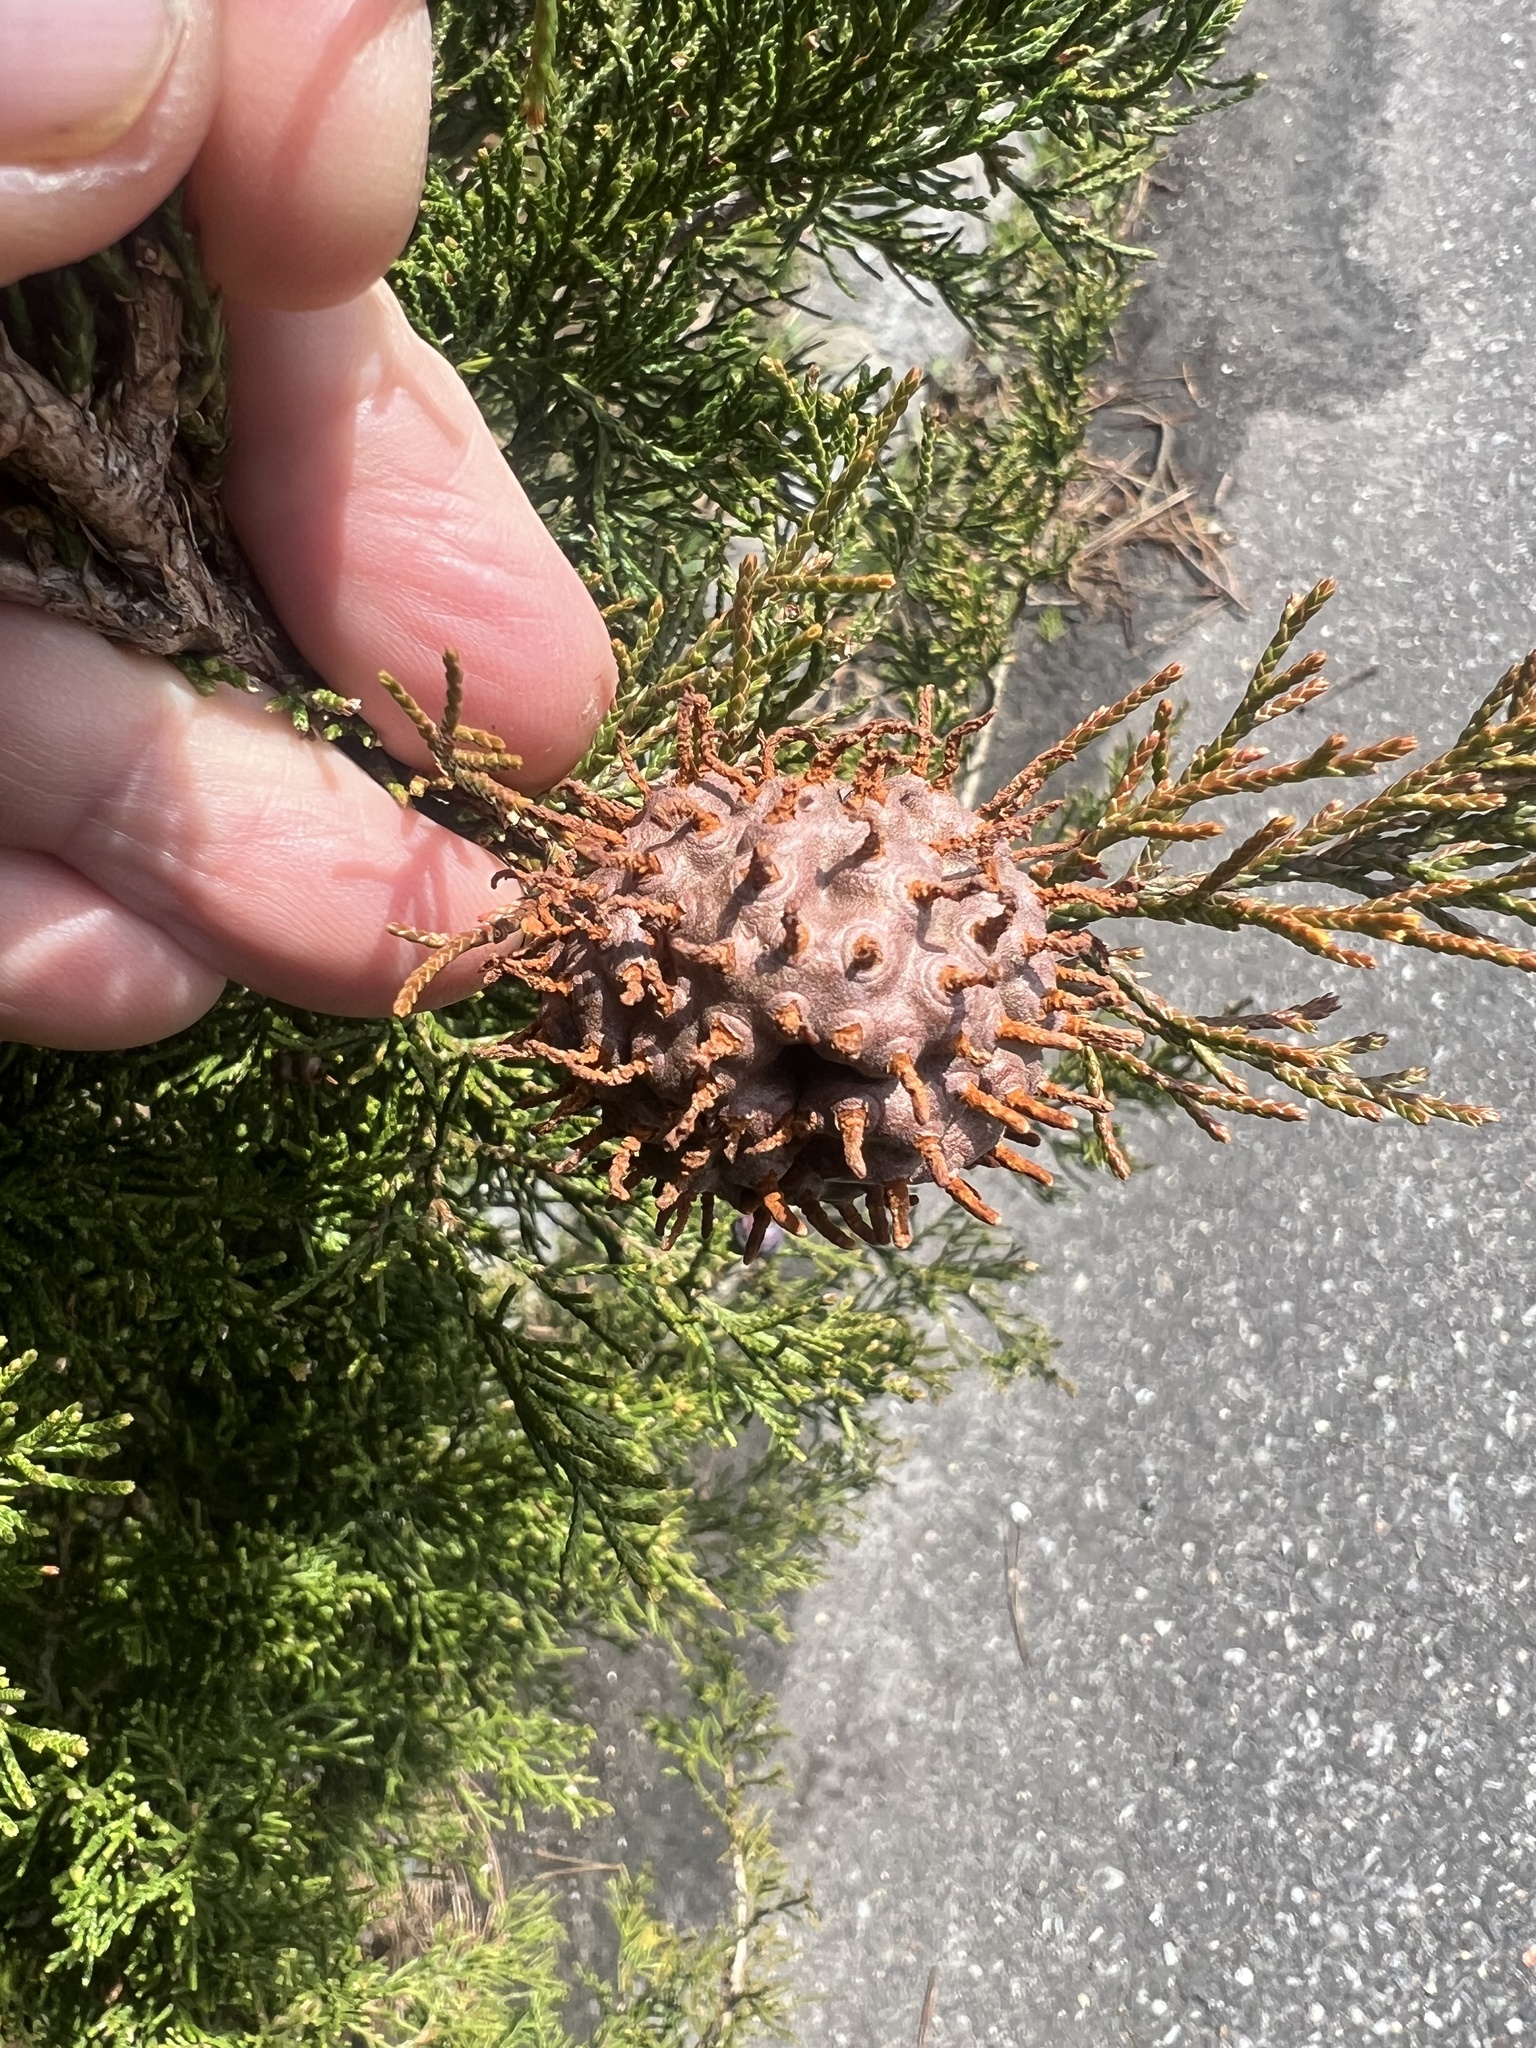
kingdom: Fungi
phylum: Basidiomycota
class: Pucciniomycetes
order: Pucciniales
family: Gymnosporangiaceae
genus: Gymnosporangium
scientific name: Gymnosporangium juniperi-virginianae
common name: Juniper-apple rust
